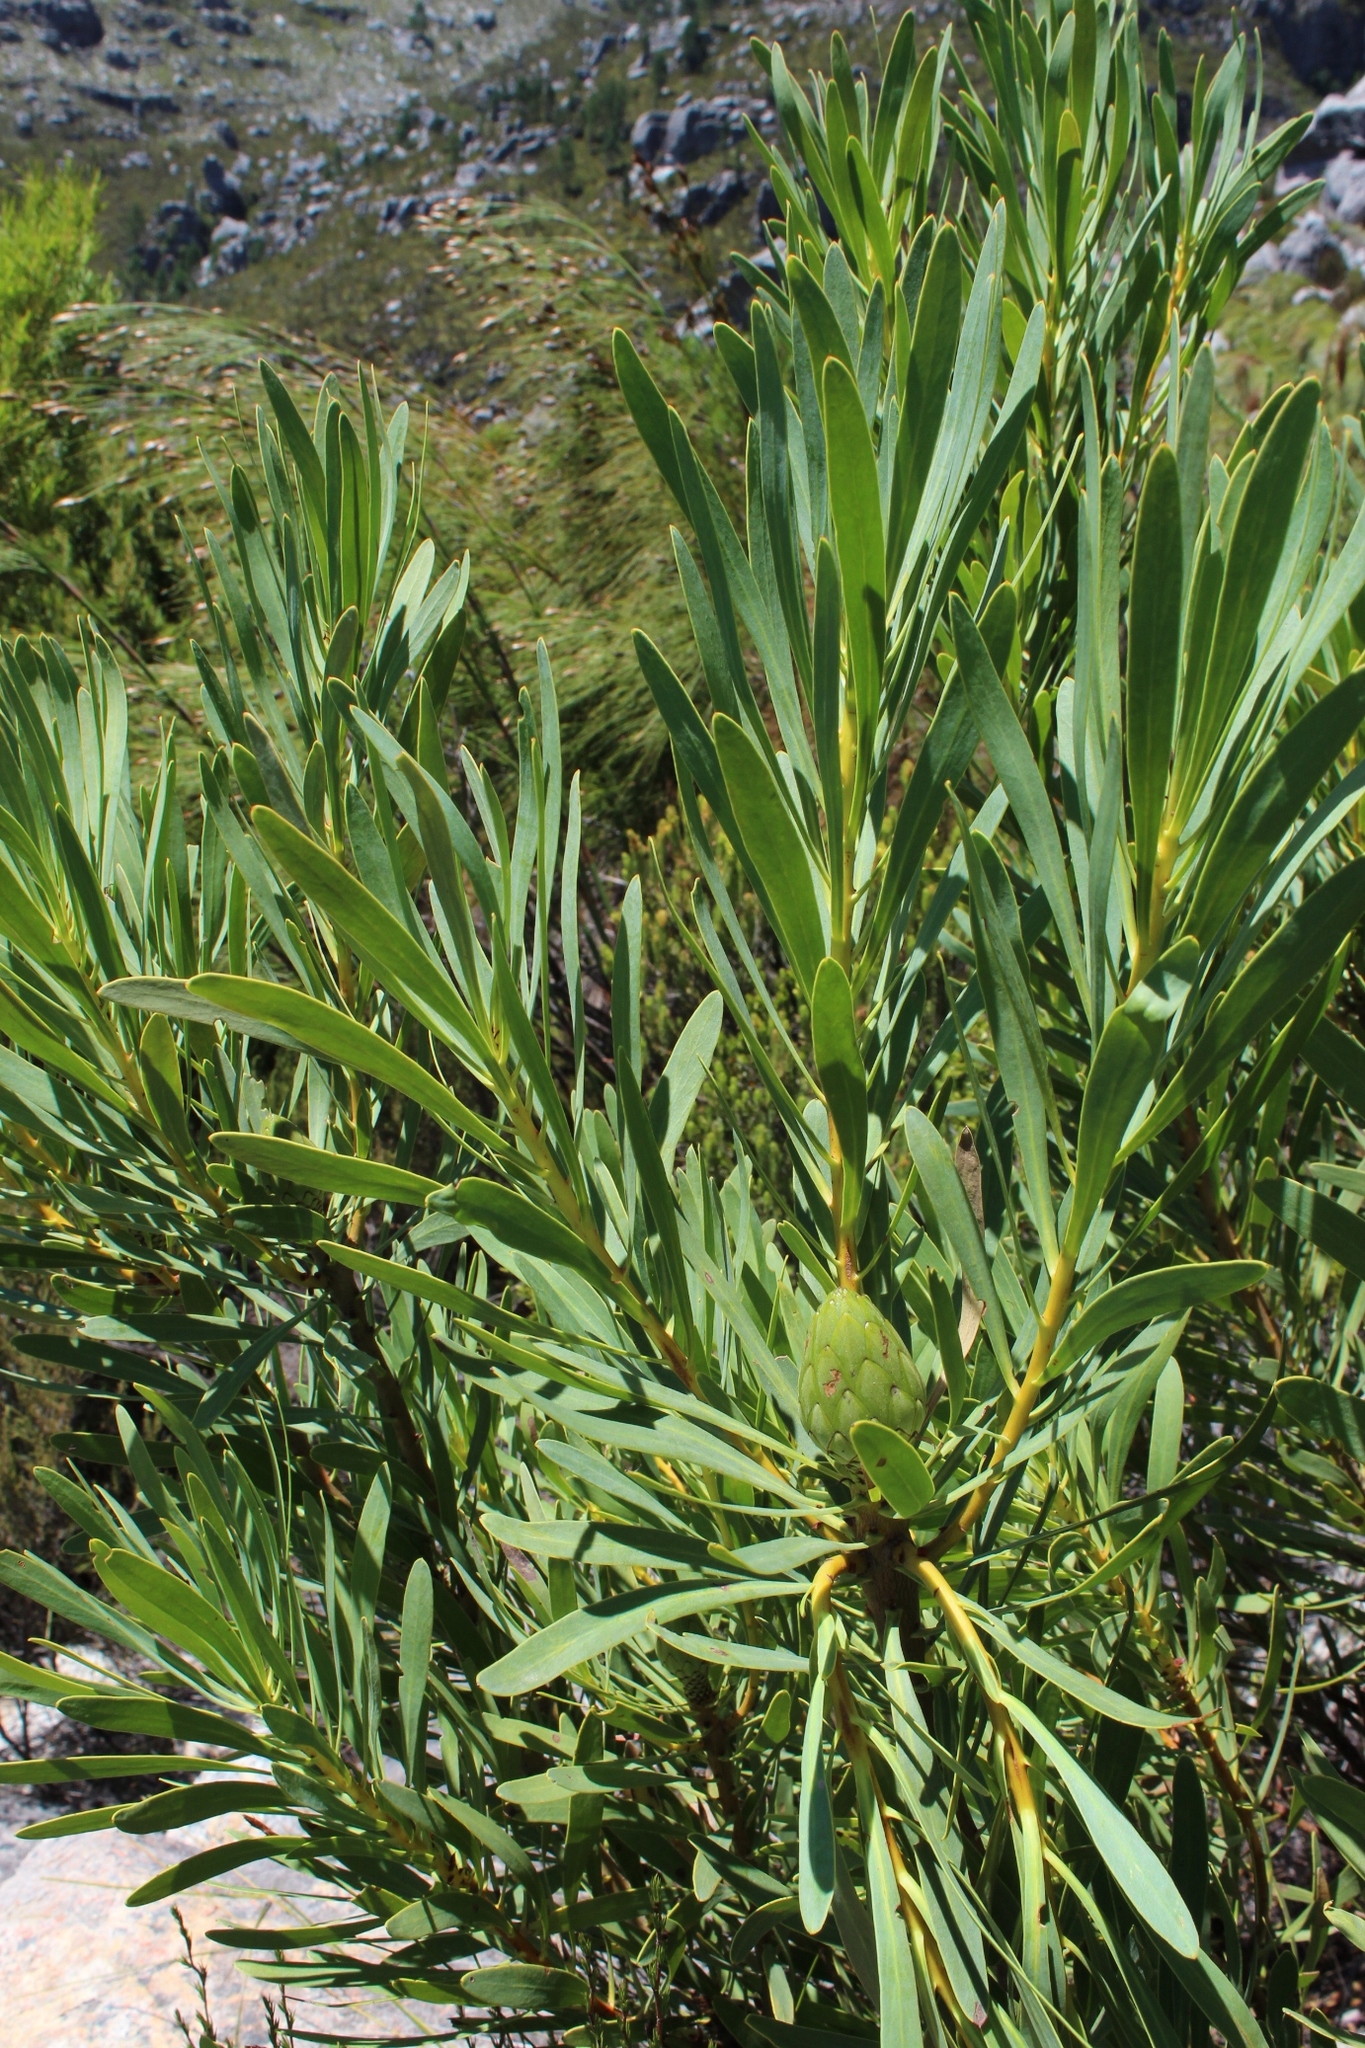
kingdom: Plantae
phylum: Tracheophyta
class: Magnoliopsida
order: Proteales
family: Proteaceae
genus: Protea
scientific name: Protea repens
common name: Sugarbush
